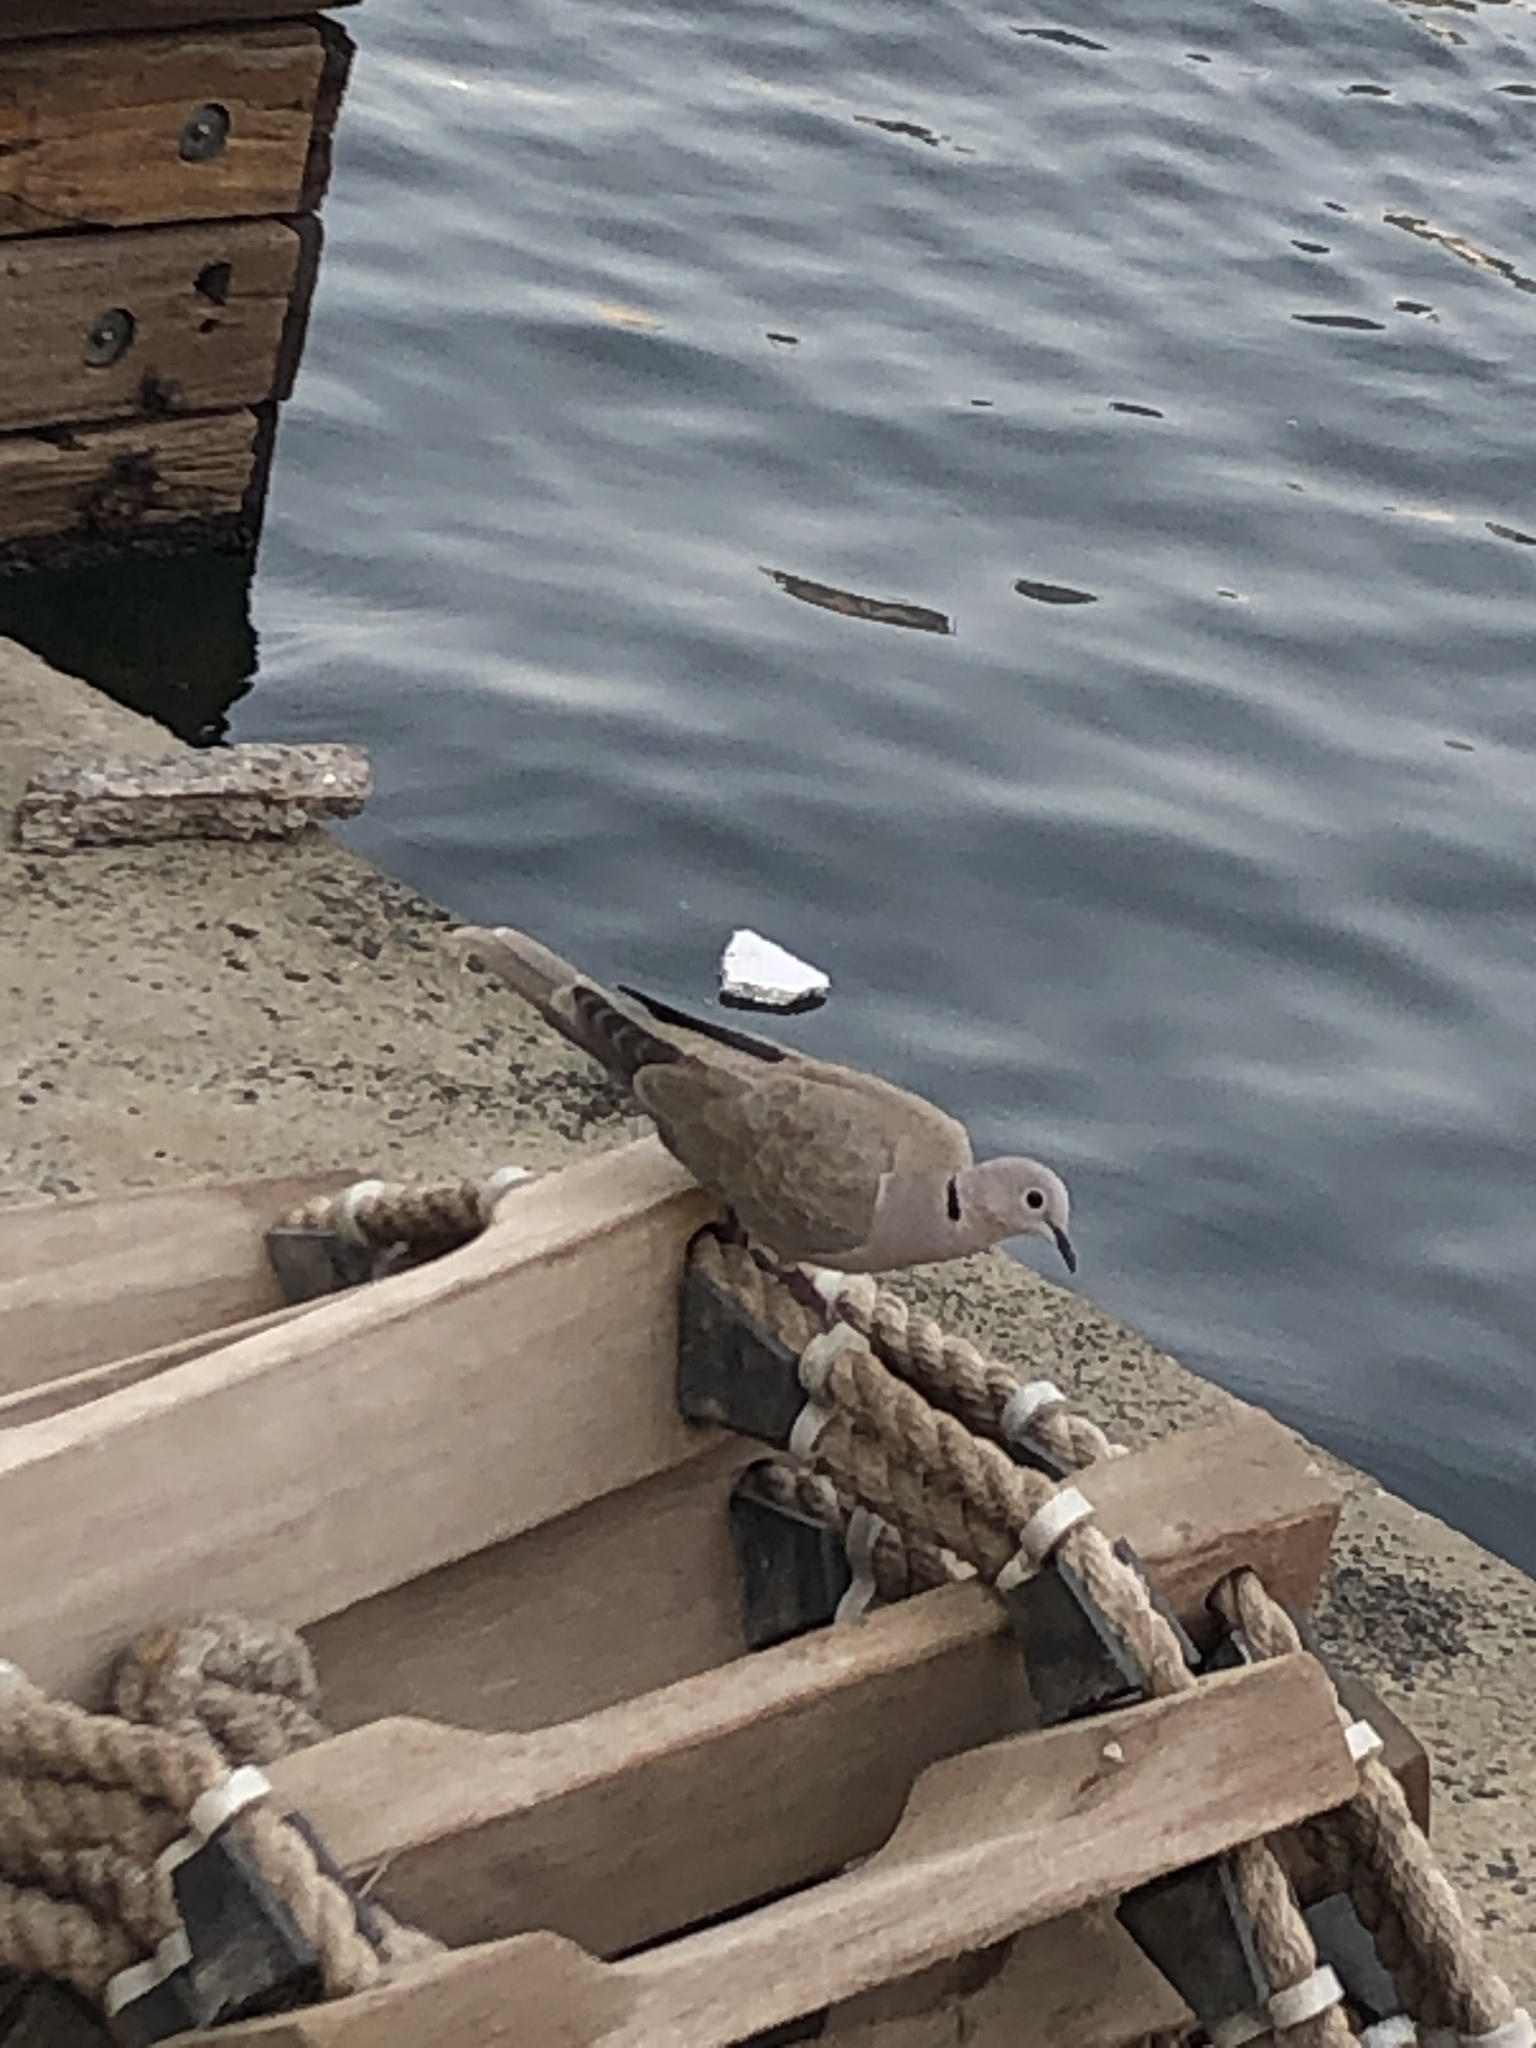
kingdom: Animalia
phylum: Chordata
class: Aves
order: Columbiformes
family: Columbidae
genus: Streptopelia
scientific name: Streptopelia decaocto
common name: Eurasian collared dove
